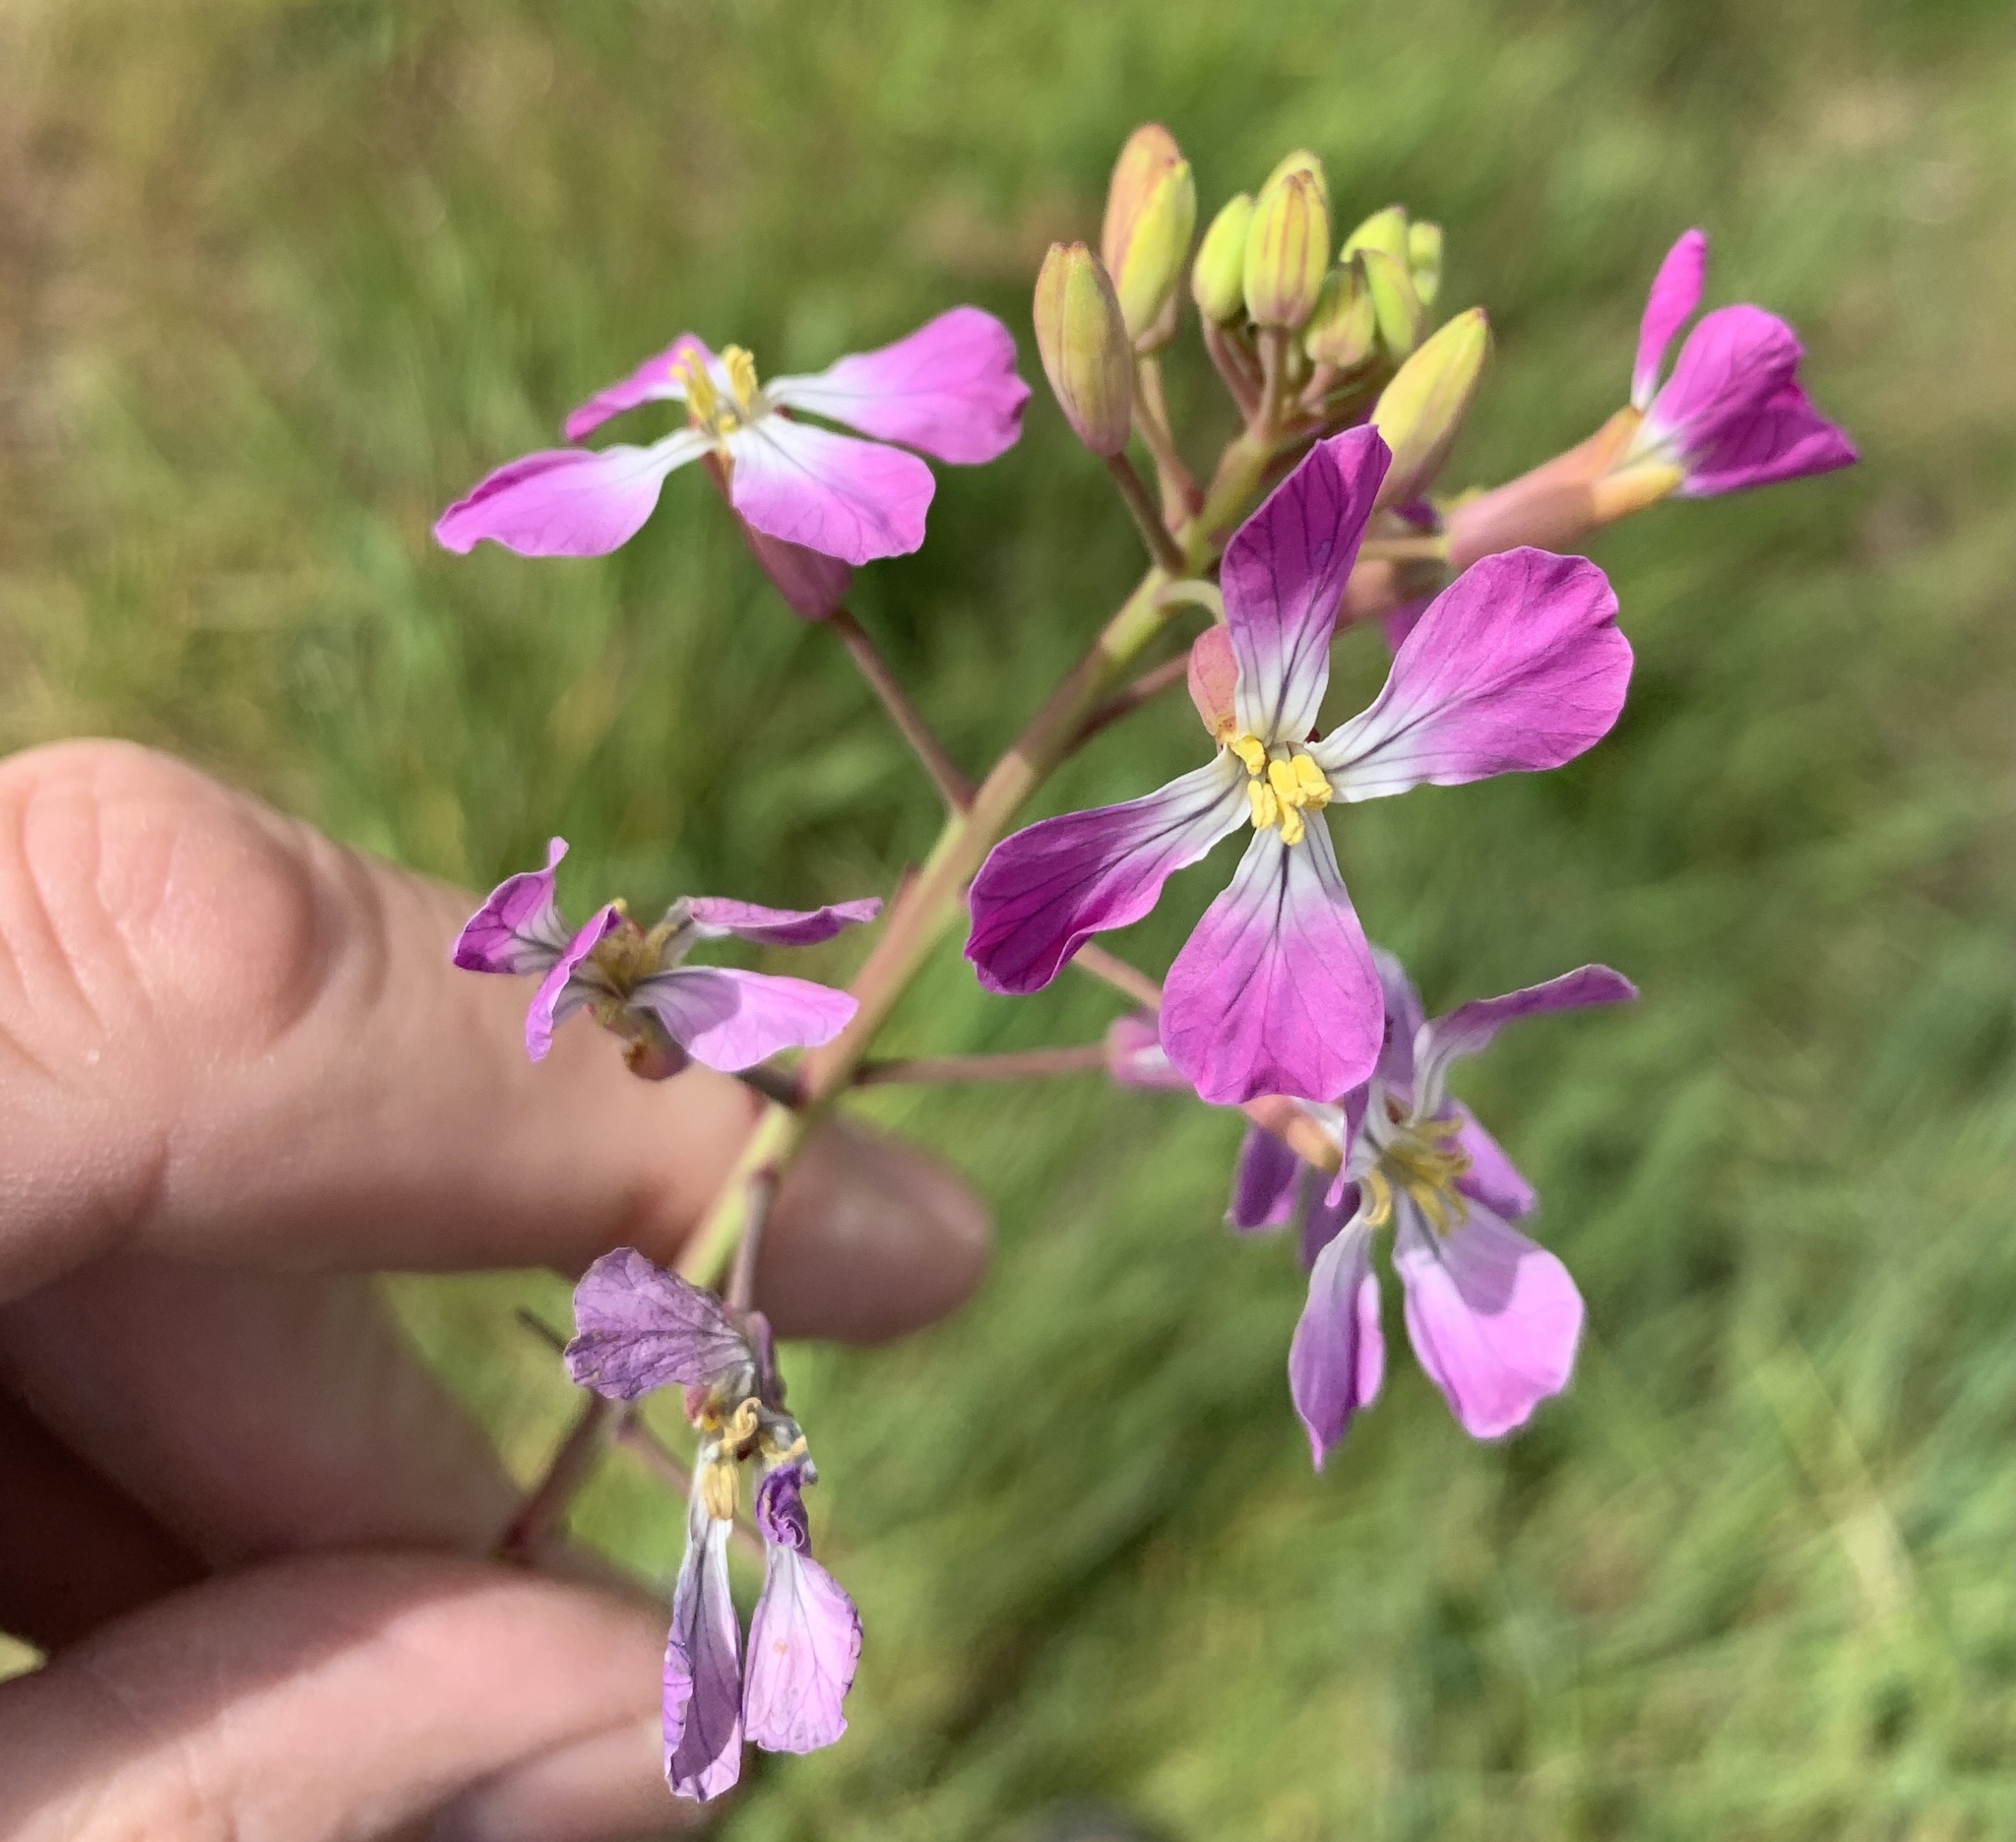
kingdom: Plantae
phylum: Tracheophyta
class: Magnoliopsida
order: Brassicales
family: Brassicaceae
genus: Raphanus
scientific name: Raphanus sativus
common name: Cultivated radish
